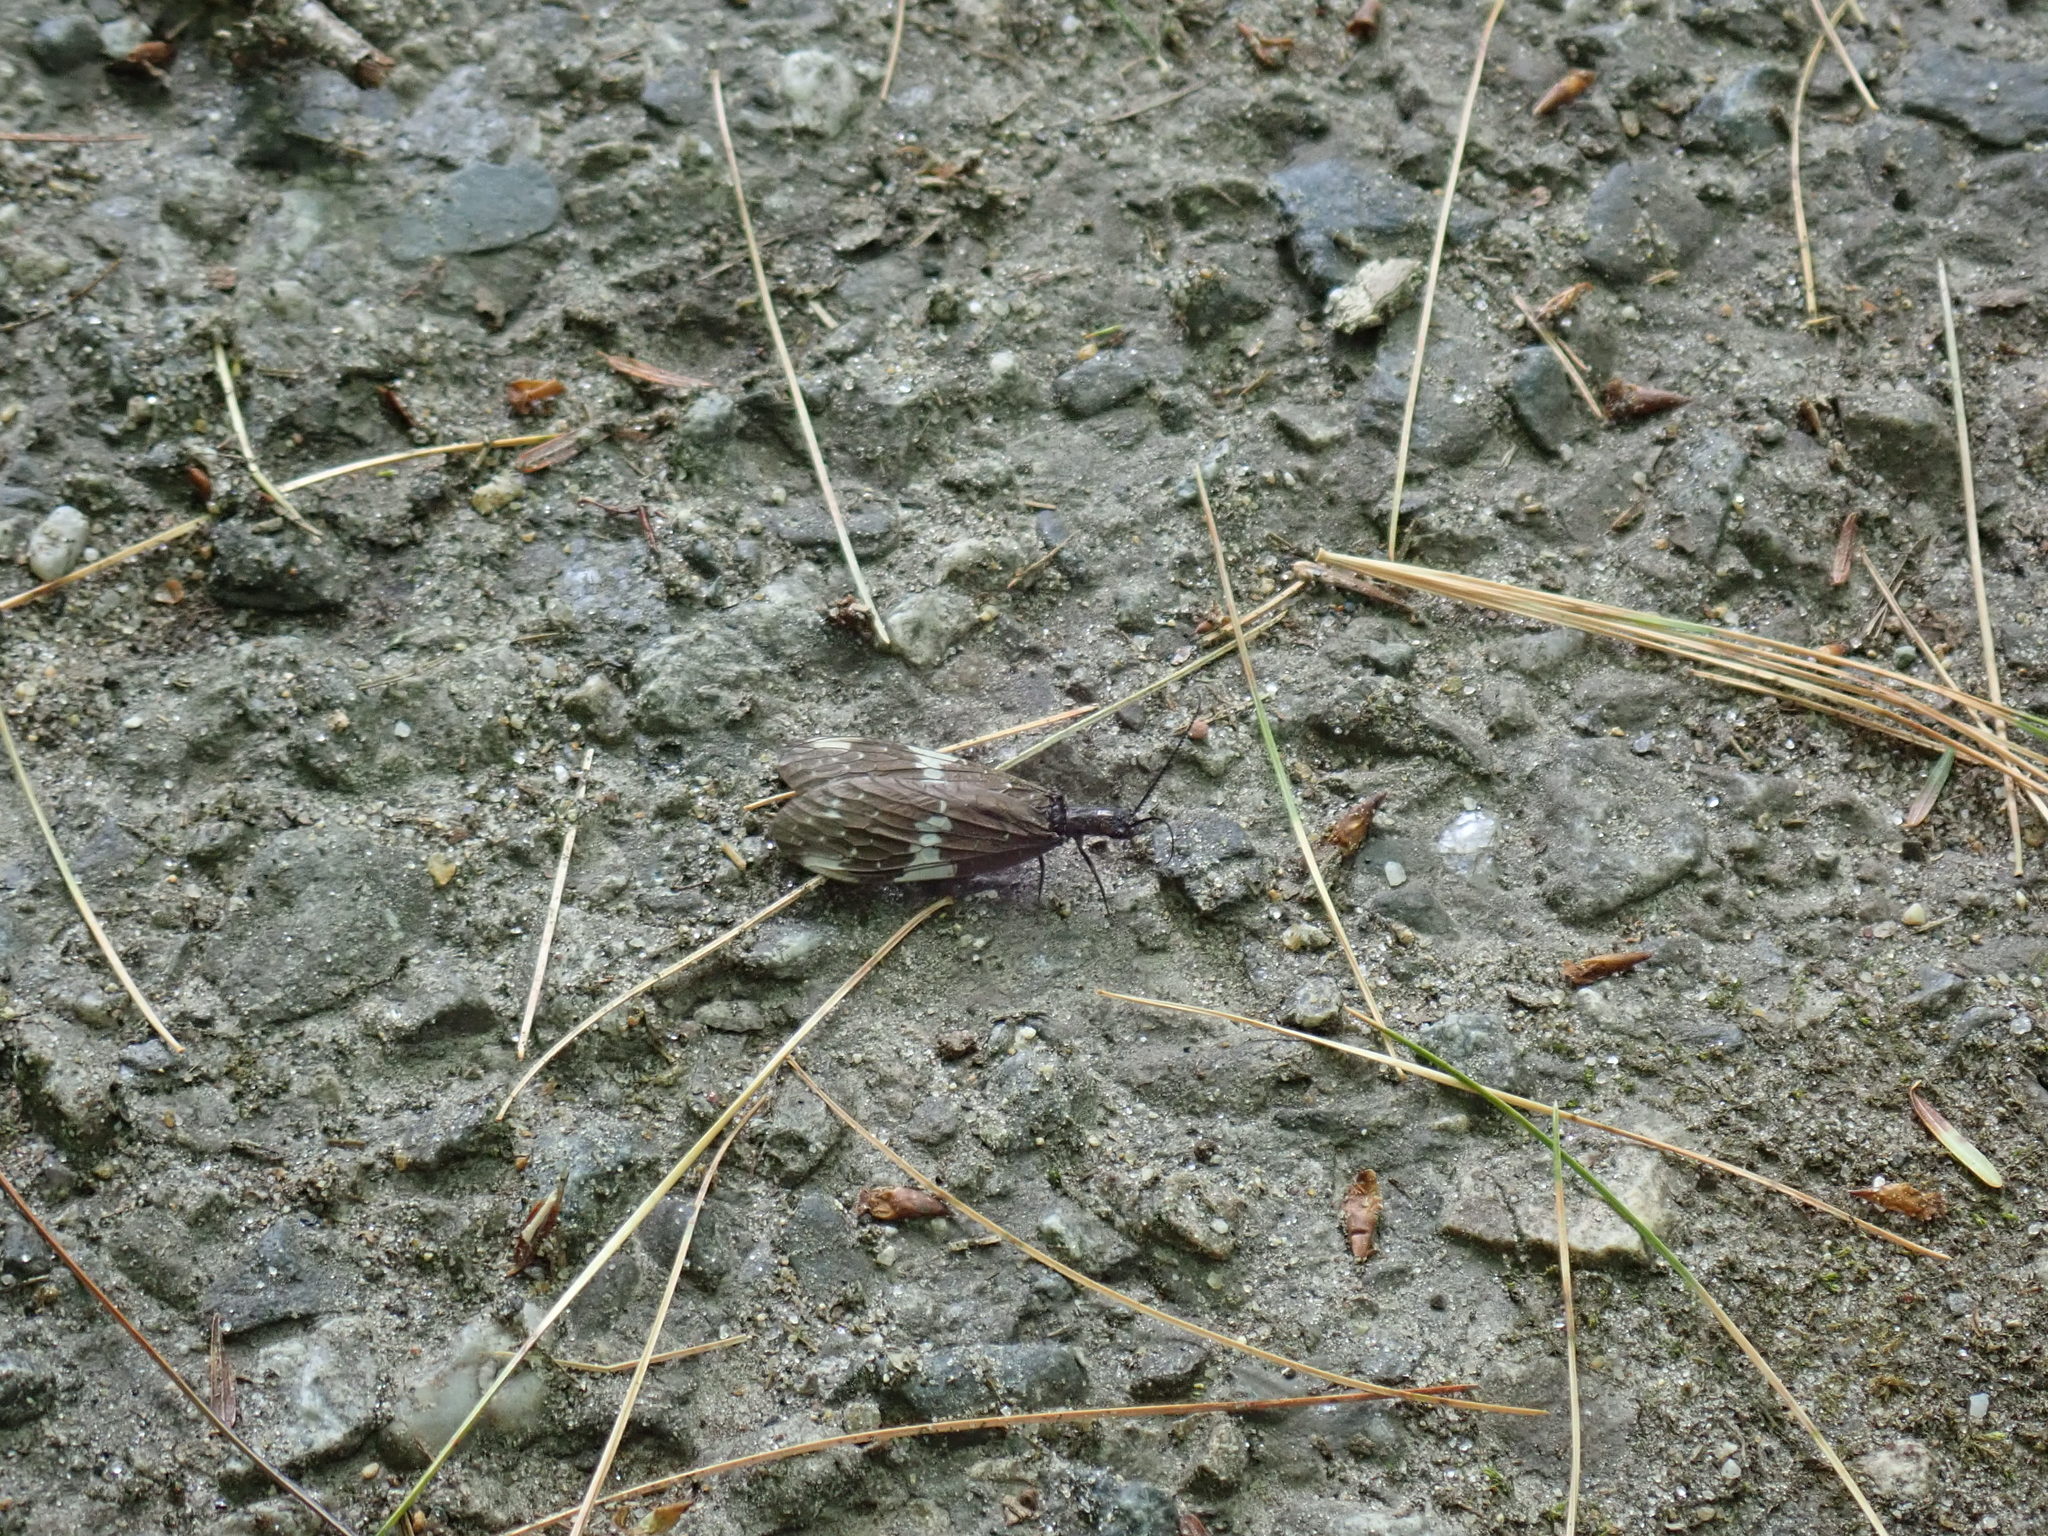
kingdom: Animalia
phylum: Arthropoda
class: Insecta
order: Megaloptera
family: Corydalidae
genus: Nigronia
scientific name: Nigronia serricornis
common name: Serrate dark fishfly
